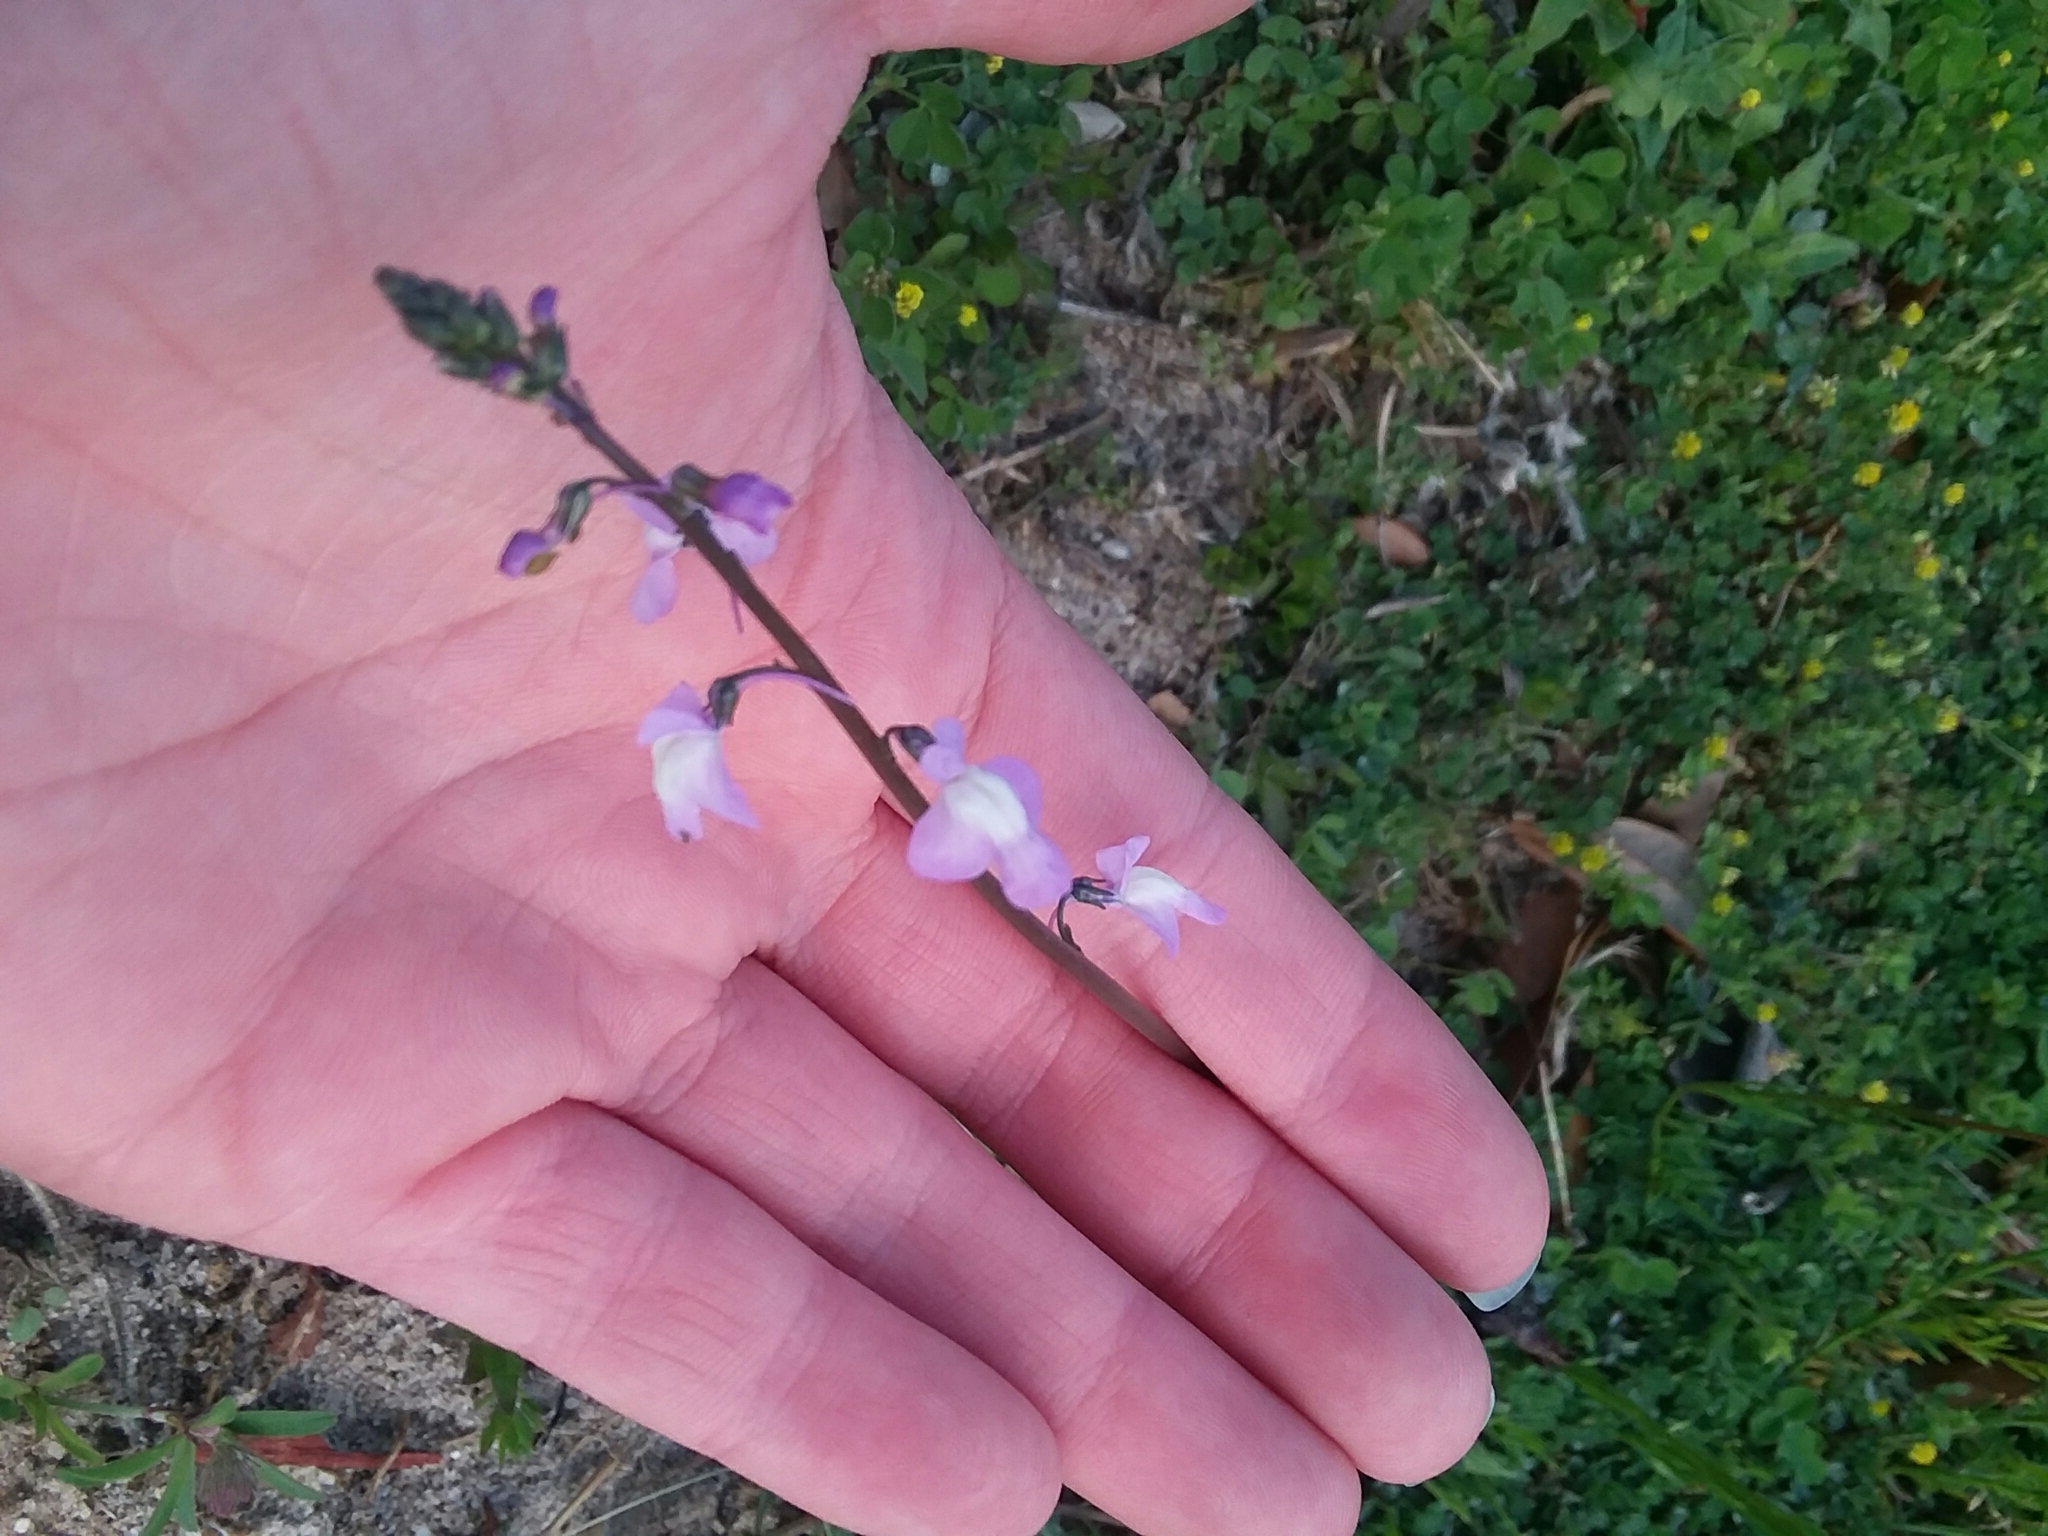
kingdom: Plantae
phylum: Tracheophyta
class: Magnoliopsida
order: Lamiales
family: Plantaginaceae
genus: Nuttallanthus
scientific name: Nuttallanthus canadensis
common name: Blue toadflax
